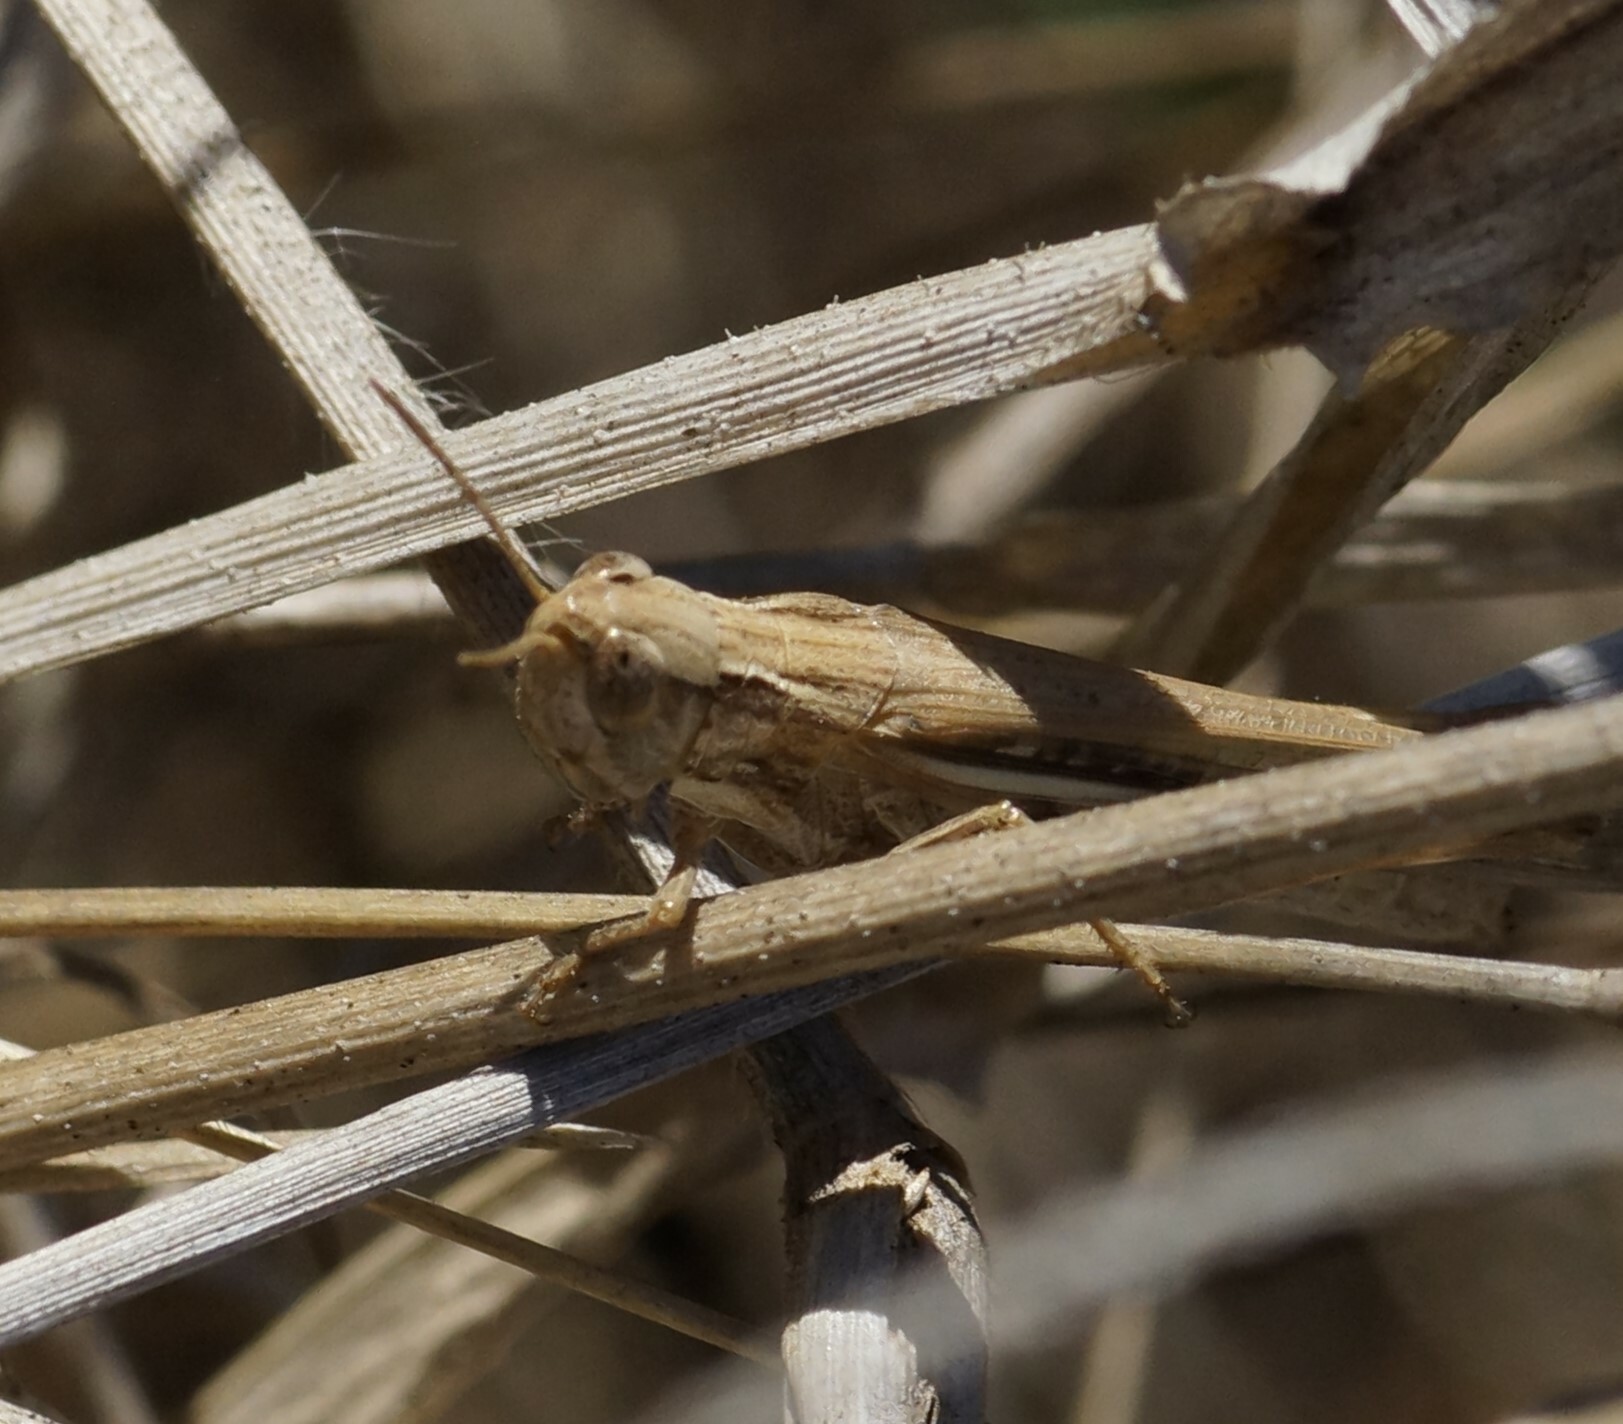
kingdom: Animalia
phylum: Arthropoda
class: Insecta
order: Orthoptera
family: Acrididae
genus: Aiolopus
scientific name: Aiolopus thalassinus
